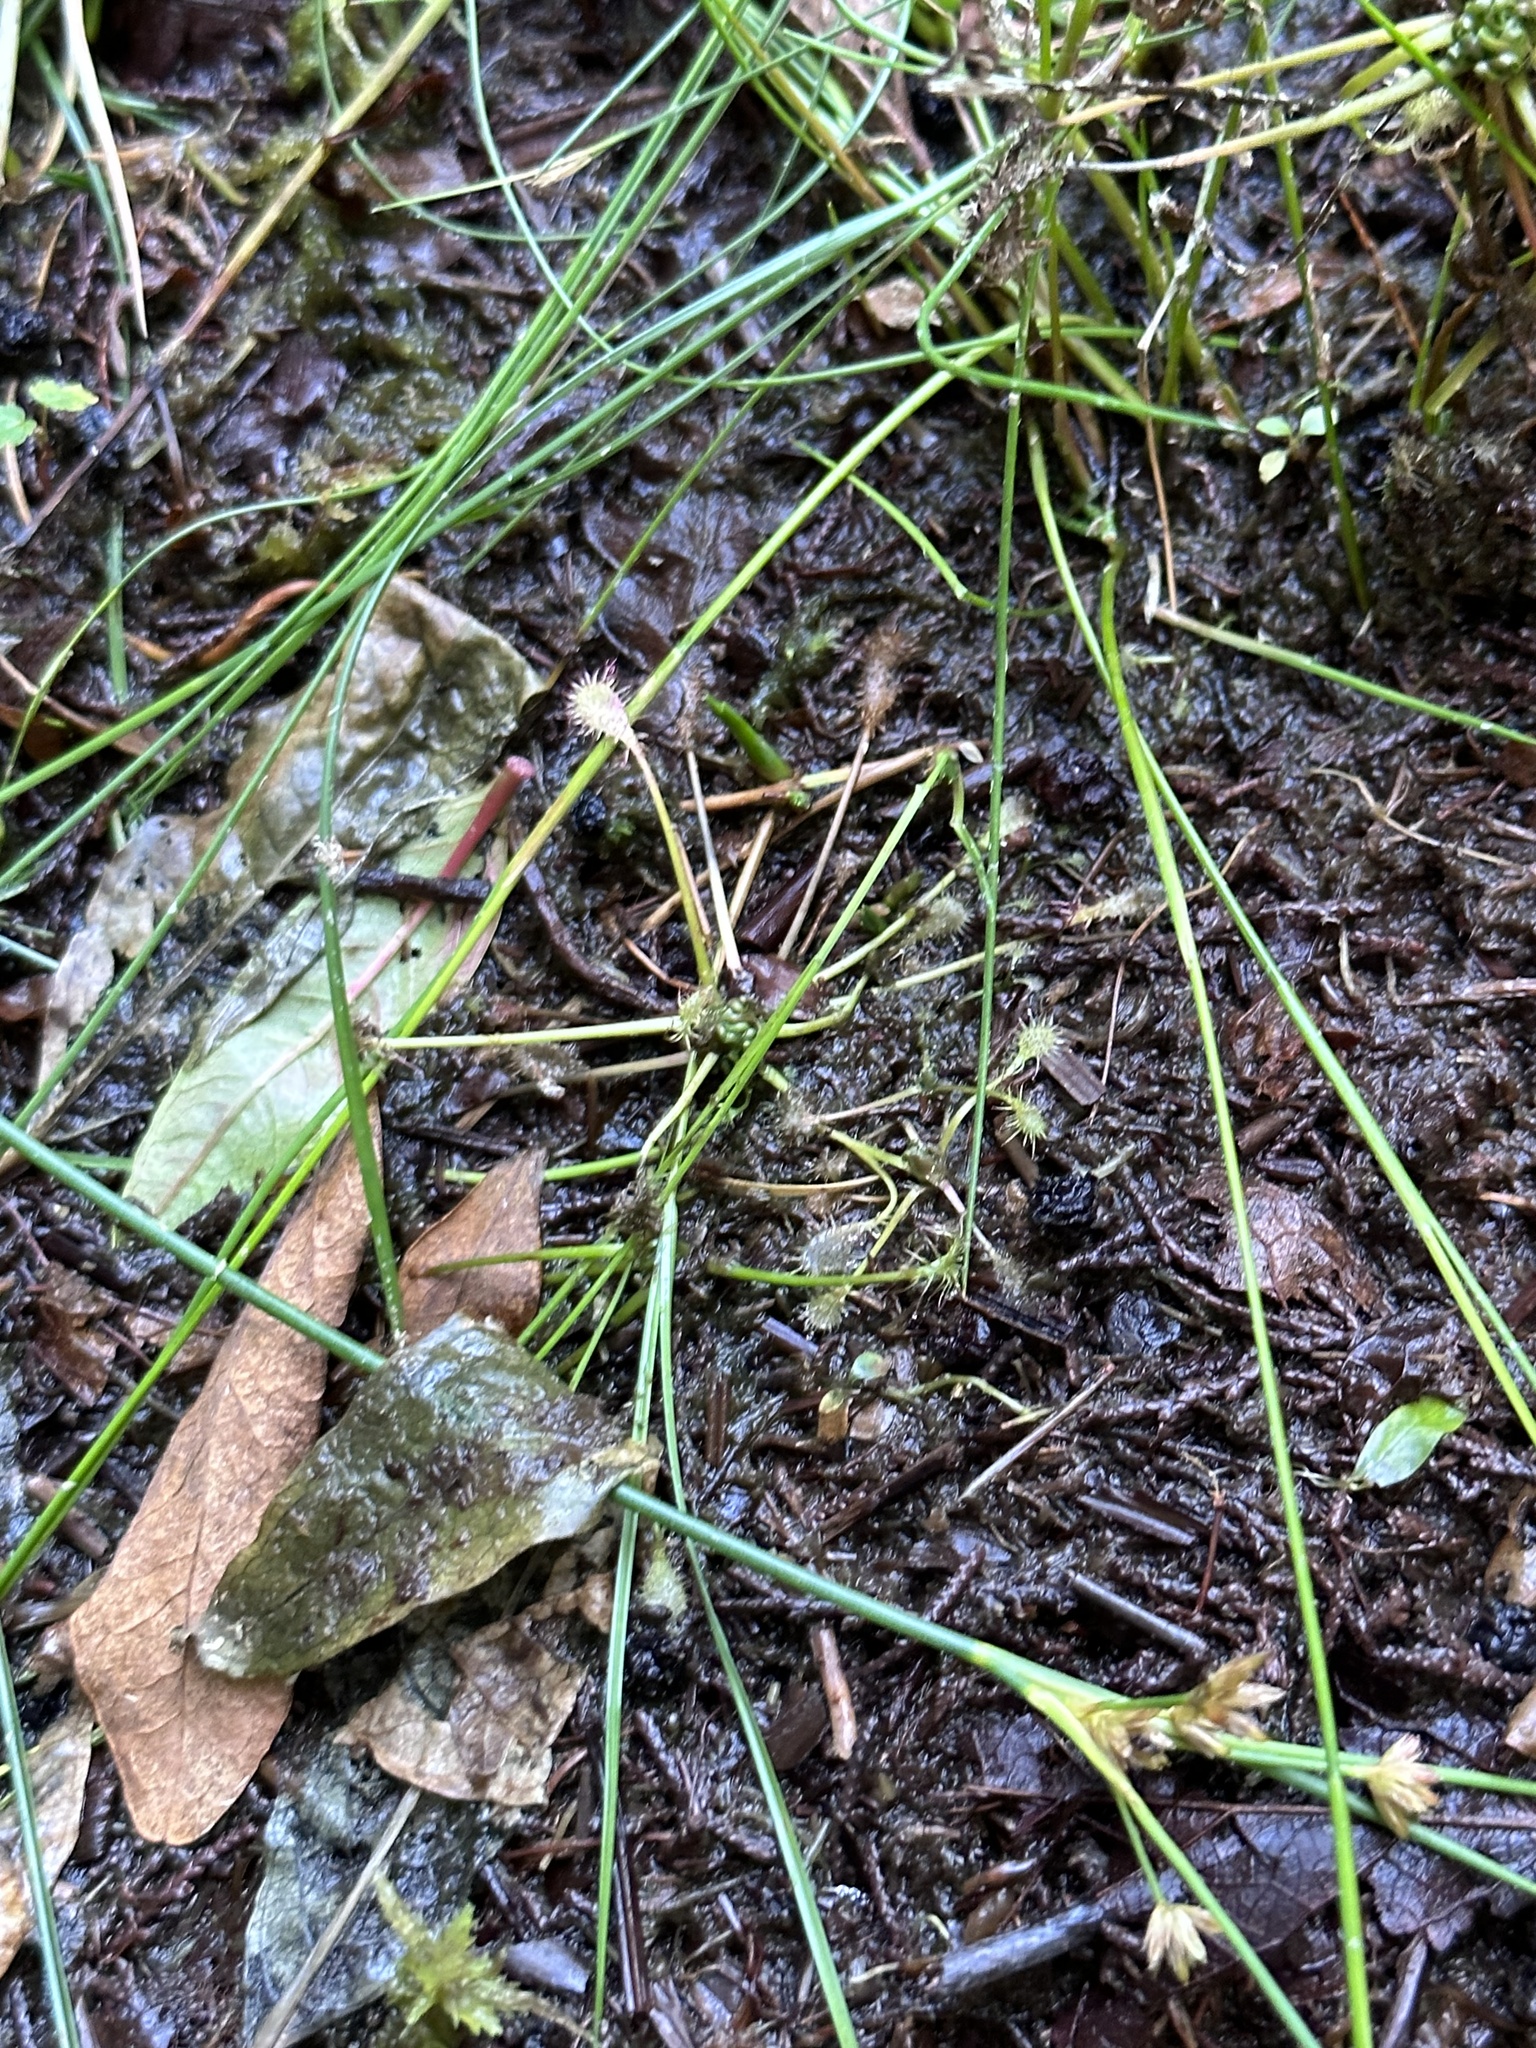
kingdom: Plantae
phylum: Tracheophyta
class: Magnoliopsida
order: Caryophyllales
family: Droseraceae
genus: Drosera
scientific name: Drosera intermedia
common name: Oblong-leaved sundew
